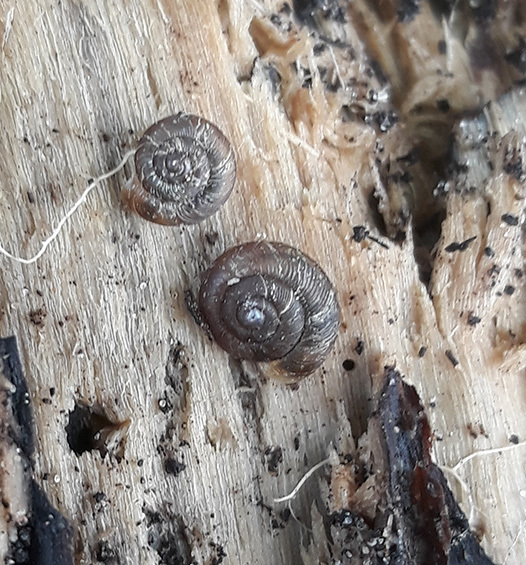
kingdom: Animalia
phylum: Mollusca
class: Gastropoda
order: Stylommatophora
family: Discidae
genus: Discus
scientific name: Discus ruderatus
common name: Brown disc snail
